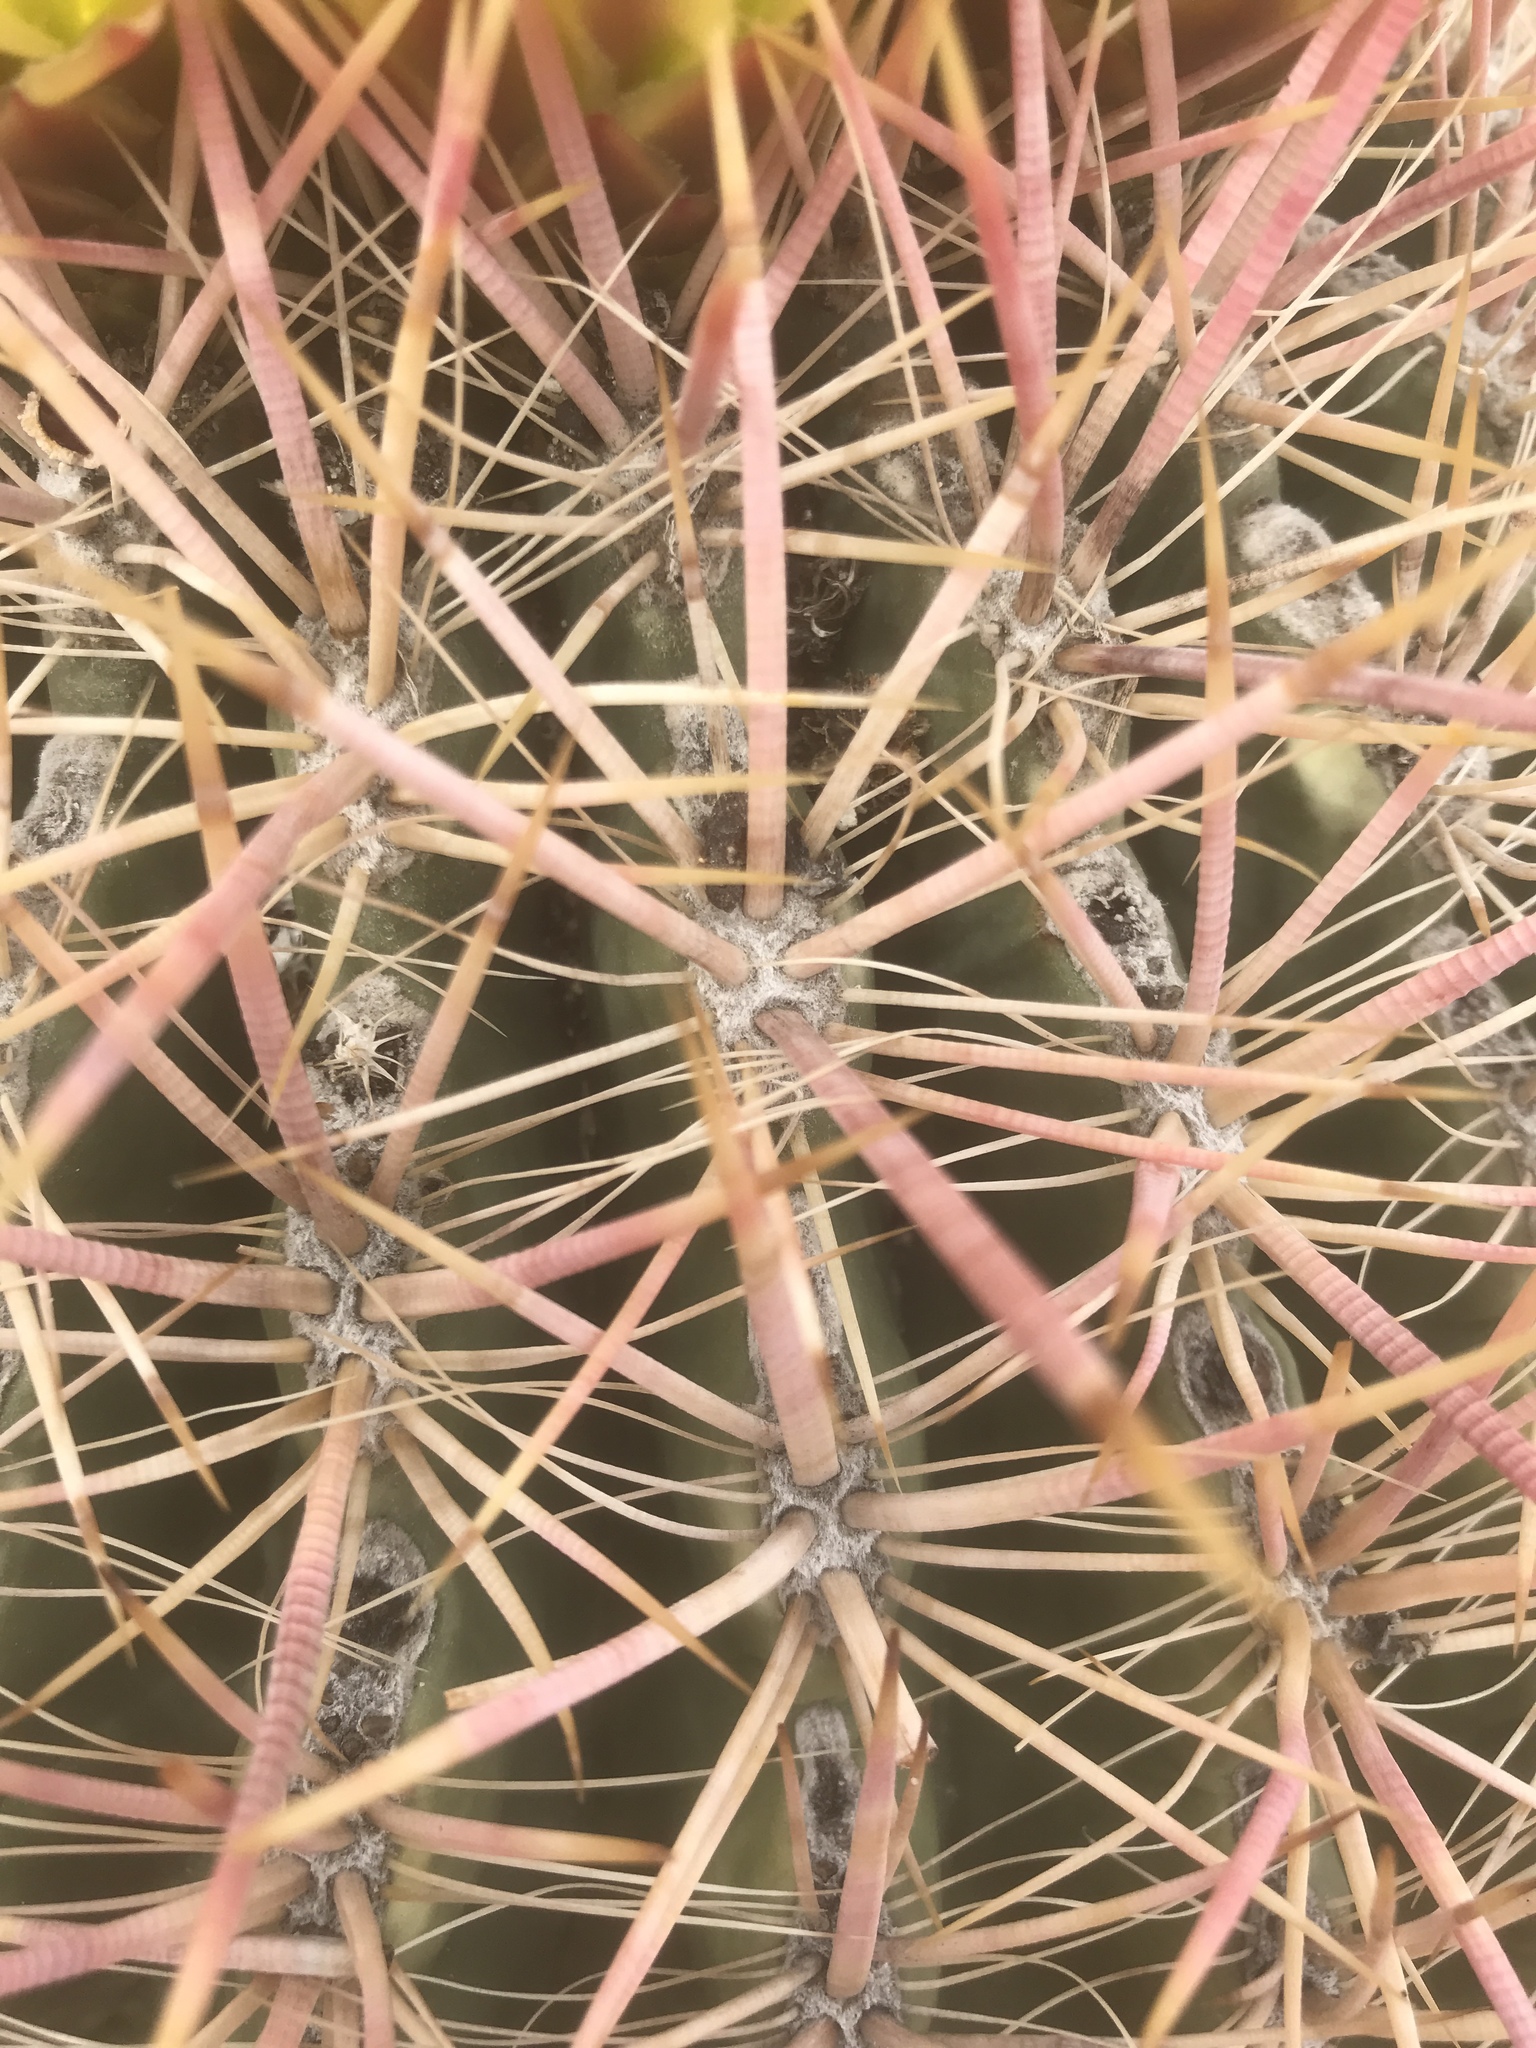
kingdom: Plantae
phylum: Tracheophyta
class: Magnoliopsida
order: Caryophyllales
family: Cactaceae
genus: Ferocactus
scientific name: Ferocactus cylindraceus
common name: California barrel cactus
